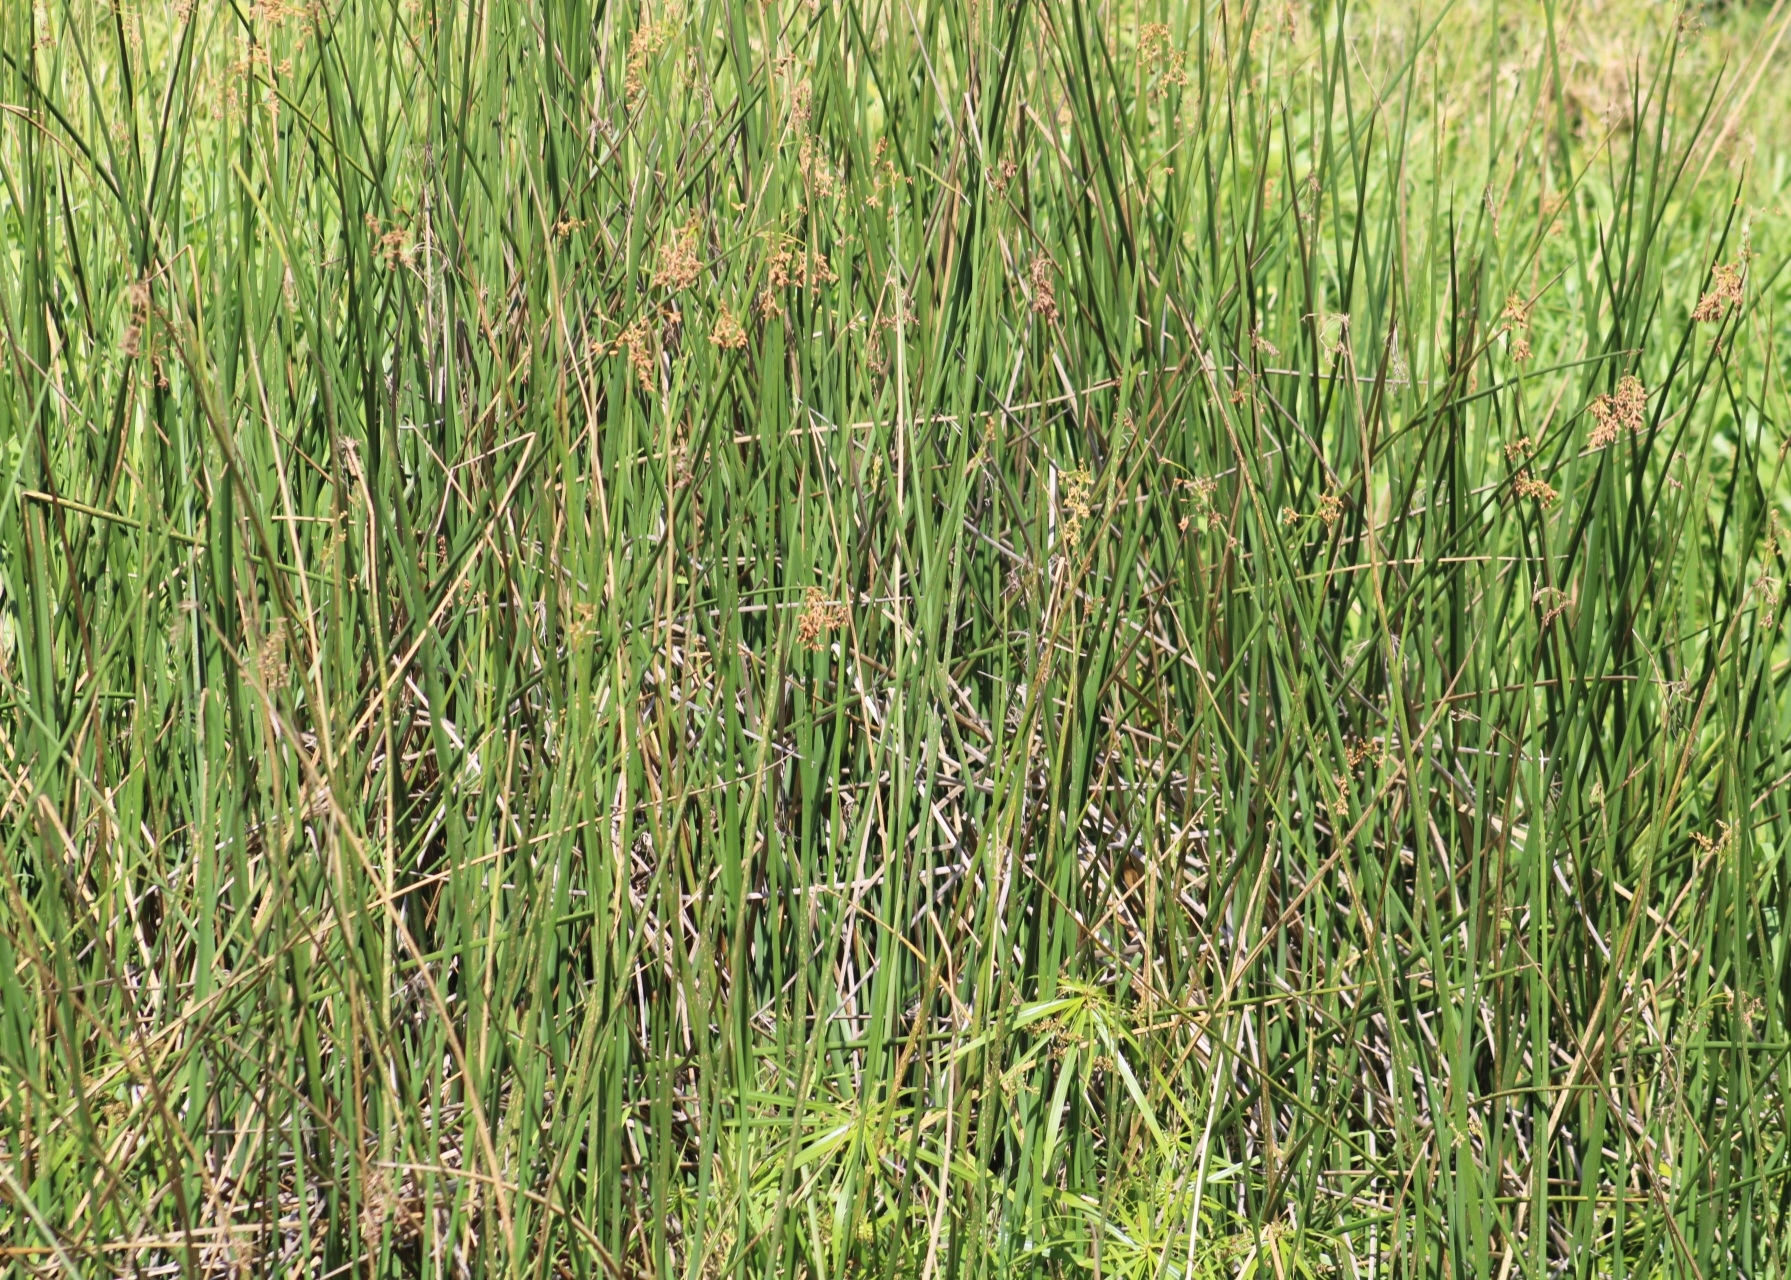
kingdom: Plantae
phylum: Tracheophyta
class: Liliopsida
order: Poales
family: Cyperaceae
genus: Schoenoplectus
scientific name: Schoenoplectus californicus
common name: California bulrush
